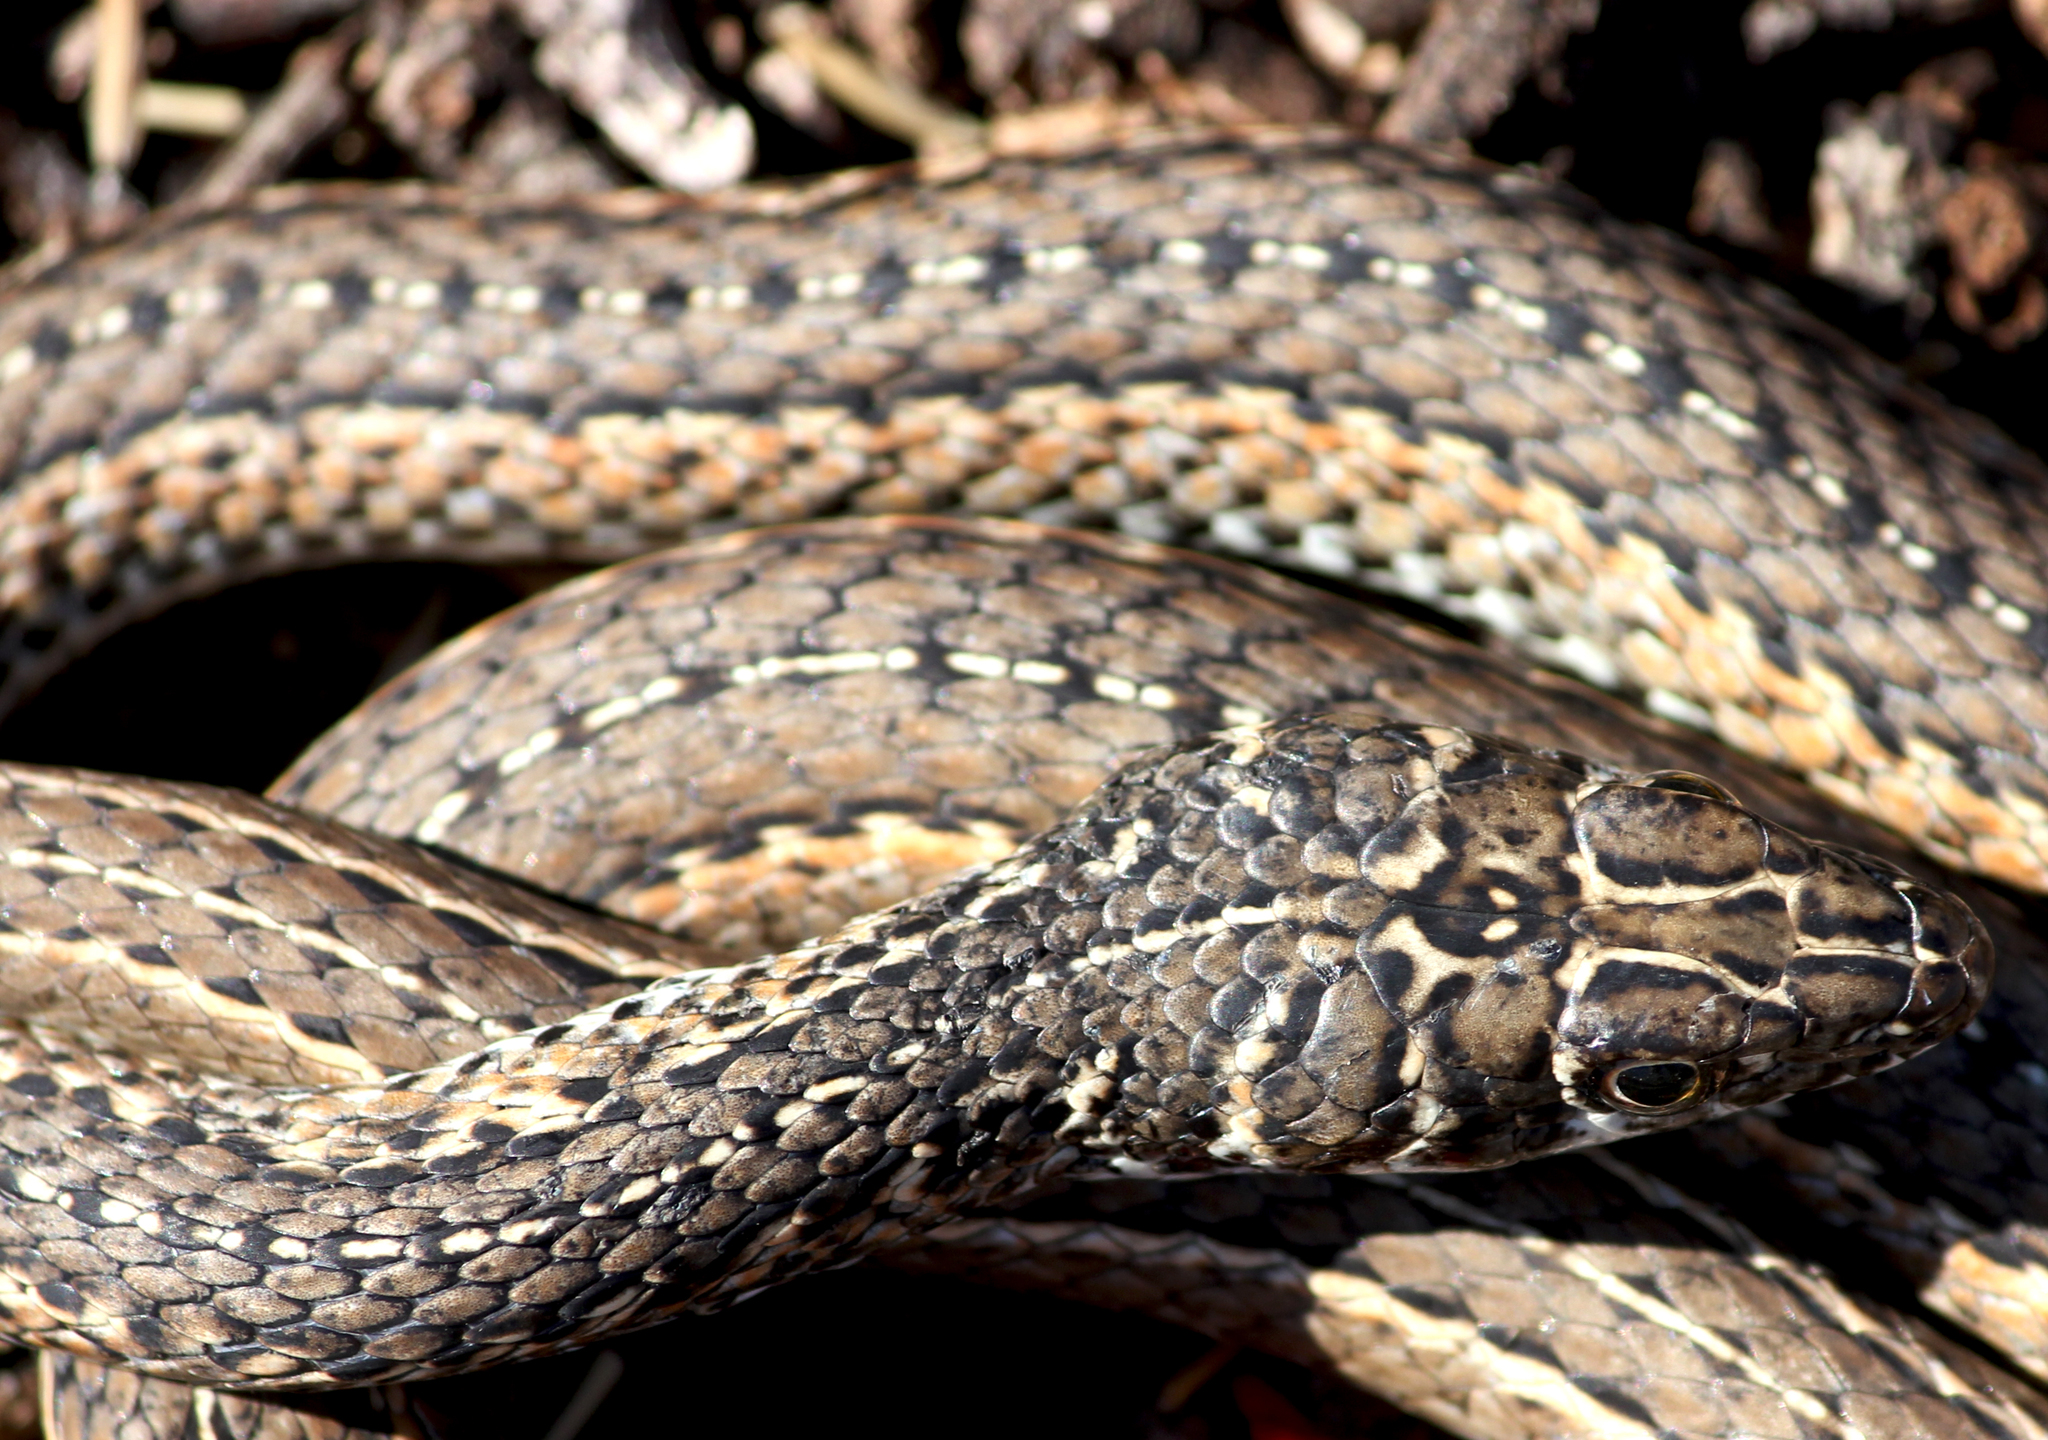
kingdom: Animalia
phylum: Chordata
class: Squamata
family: Psammophiidae
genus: Psammophis
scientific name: Psammophis leightoni
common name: Cape sand snake
